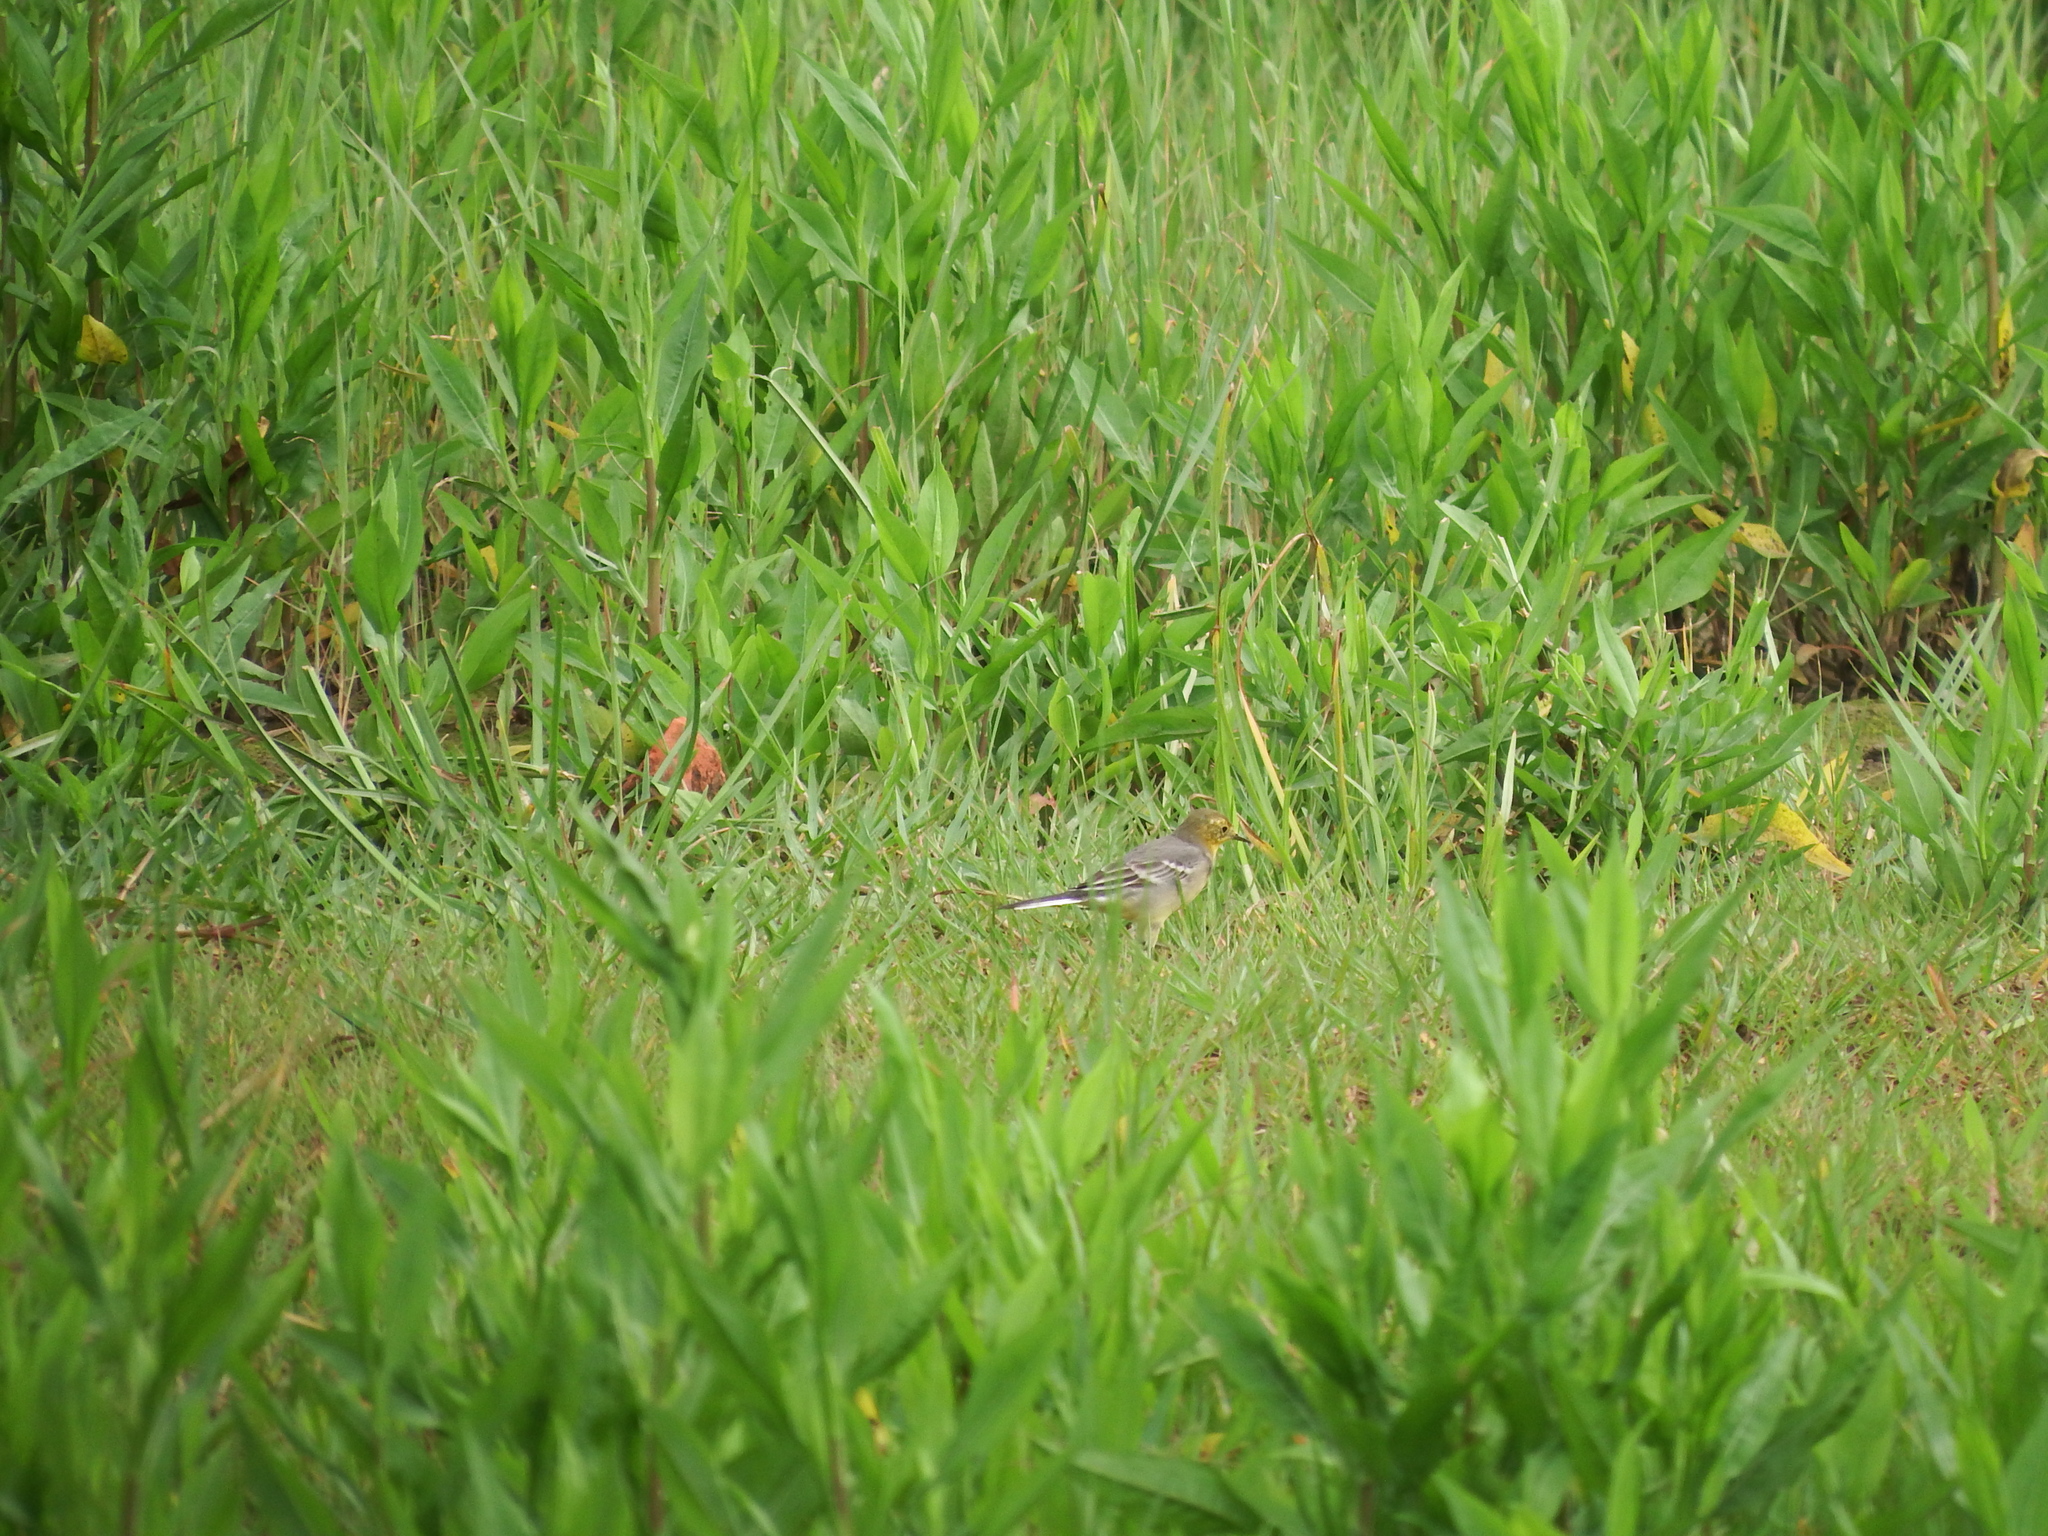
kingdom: Animalia
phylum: Chordata
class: Aves
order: Passeriformes
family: Motacillidae
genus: Motacilla
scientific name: Motacilla citreola
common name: Citrine wagtail
